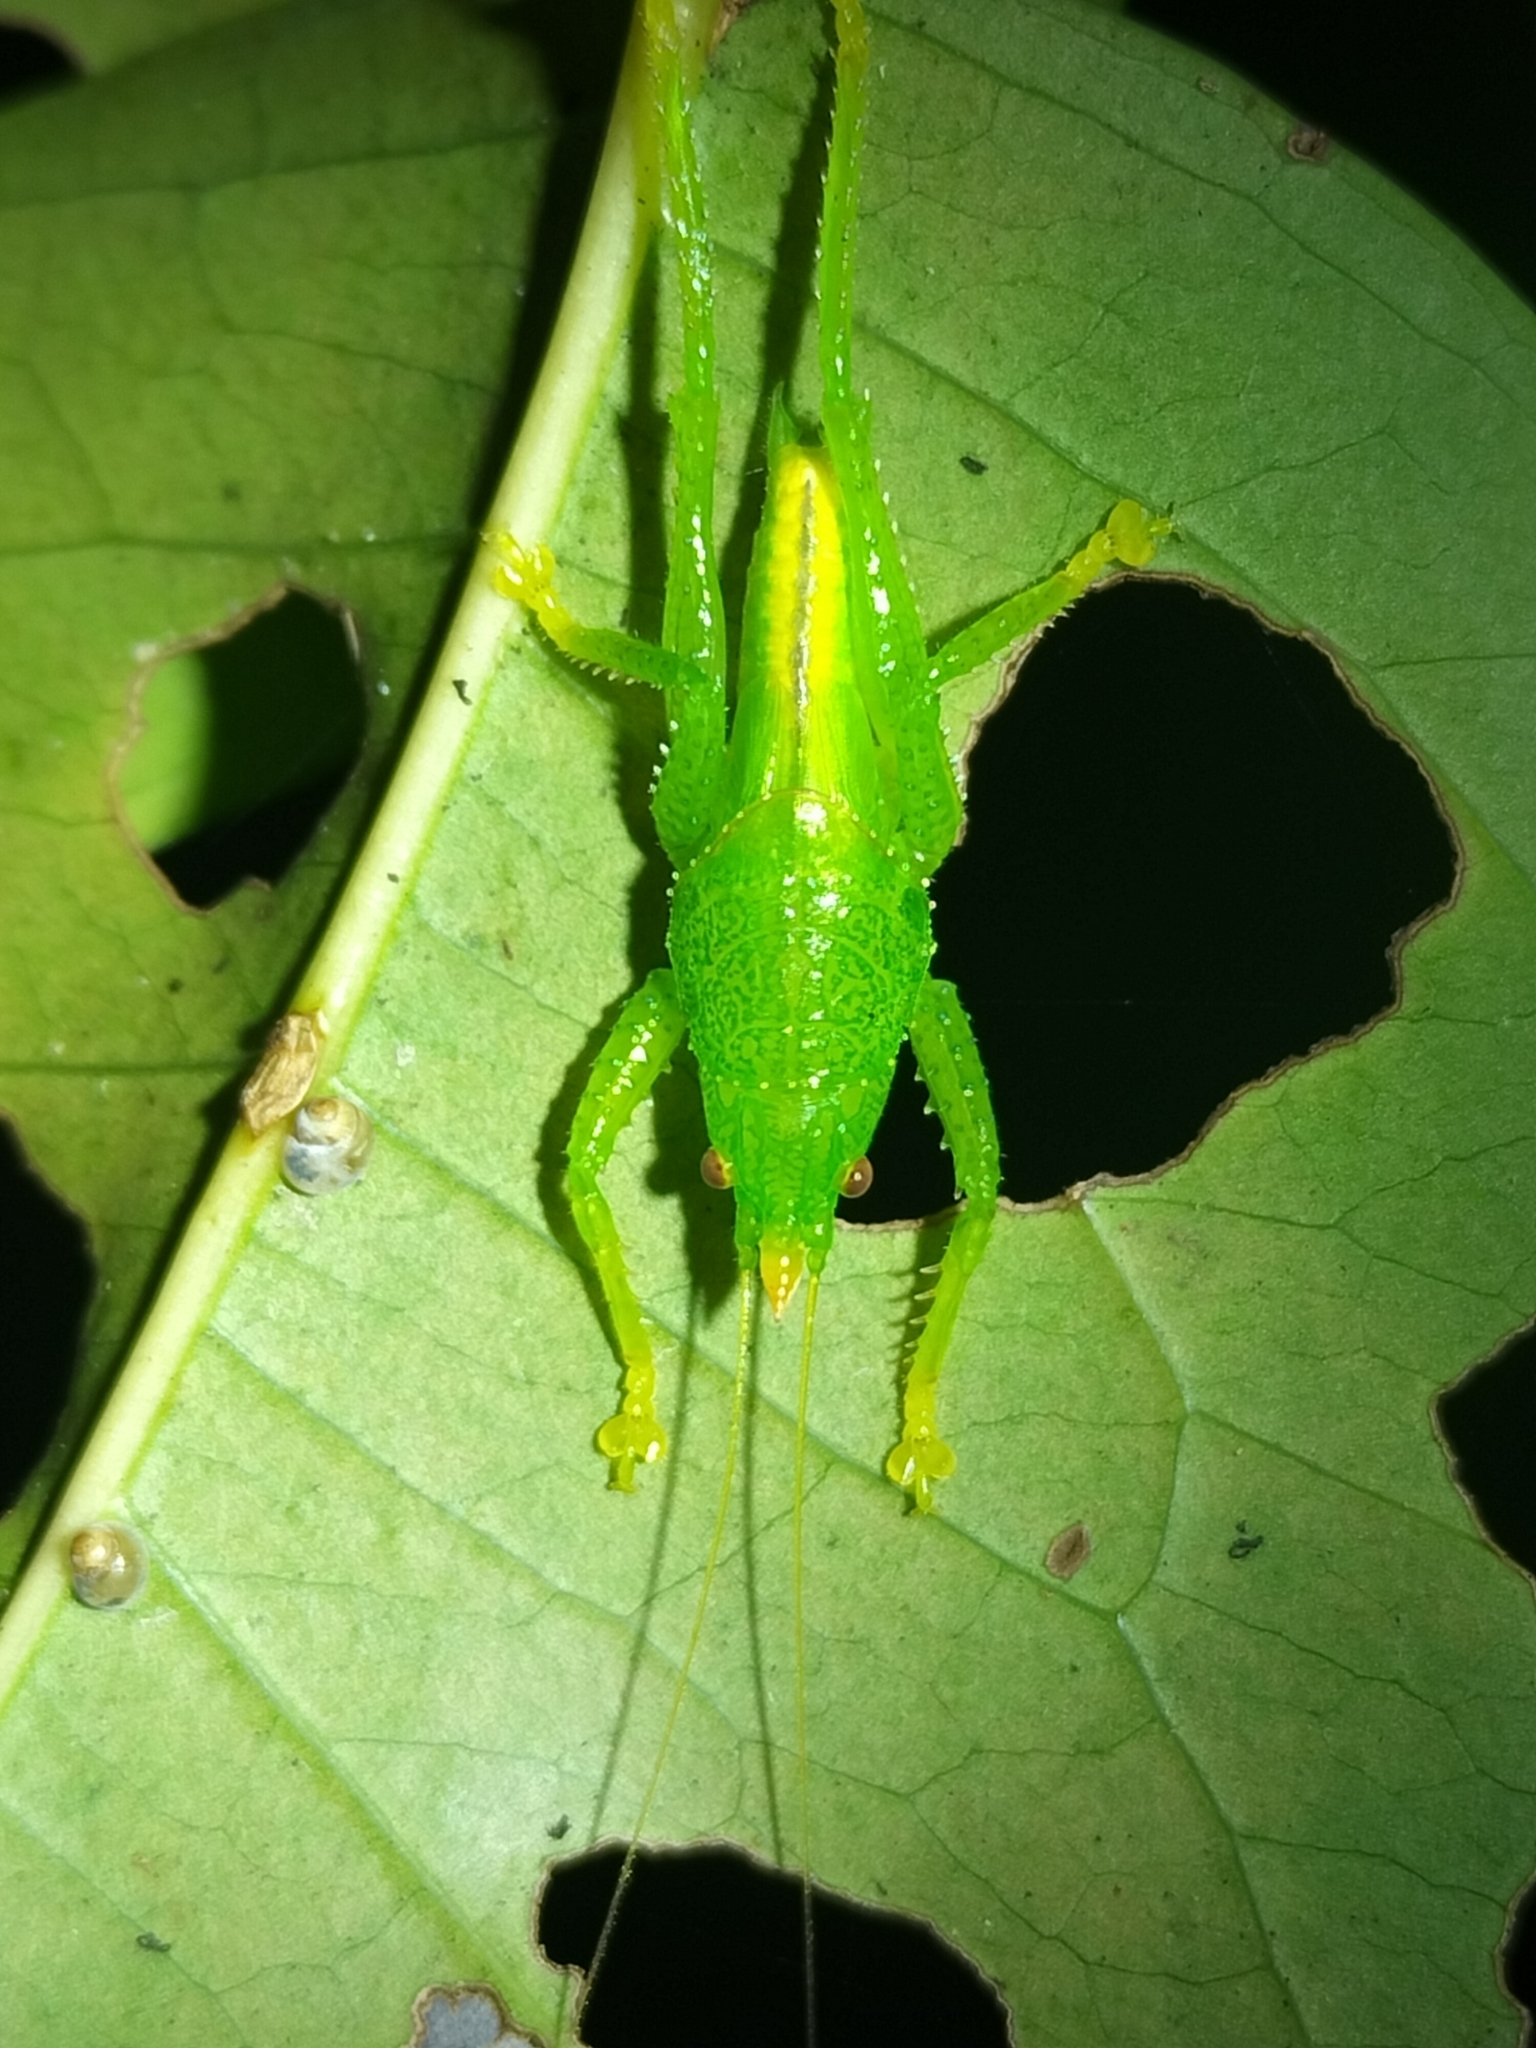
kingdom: Animalia
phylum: Arthropoda
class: Insecta
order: Orthoptera
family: Tettigoniidae
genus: Emeraldagraecia
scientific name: Emeraldagraecia munggarifrons
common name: Pink-faced emerald
